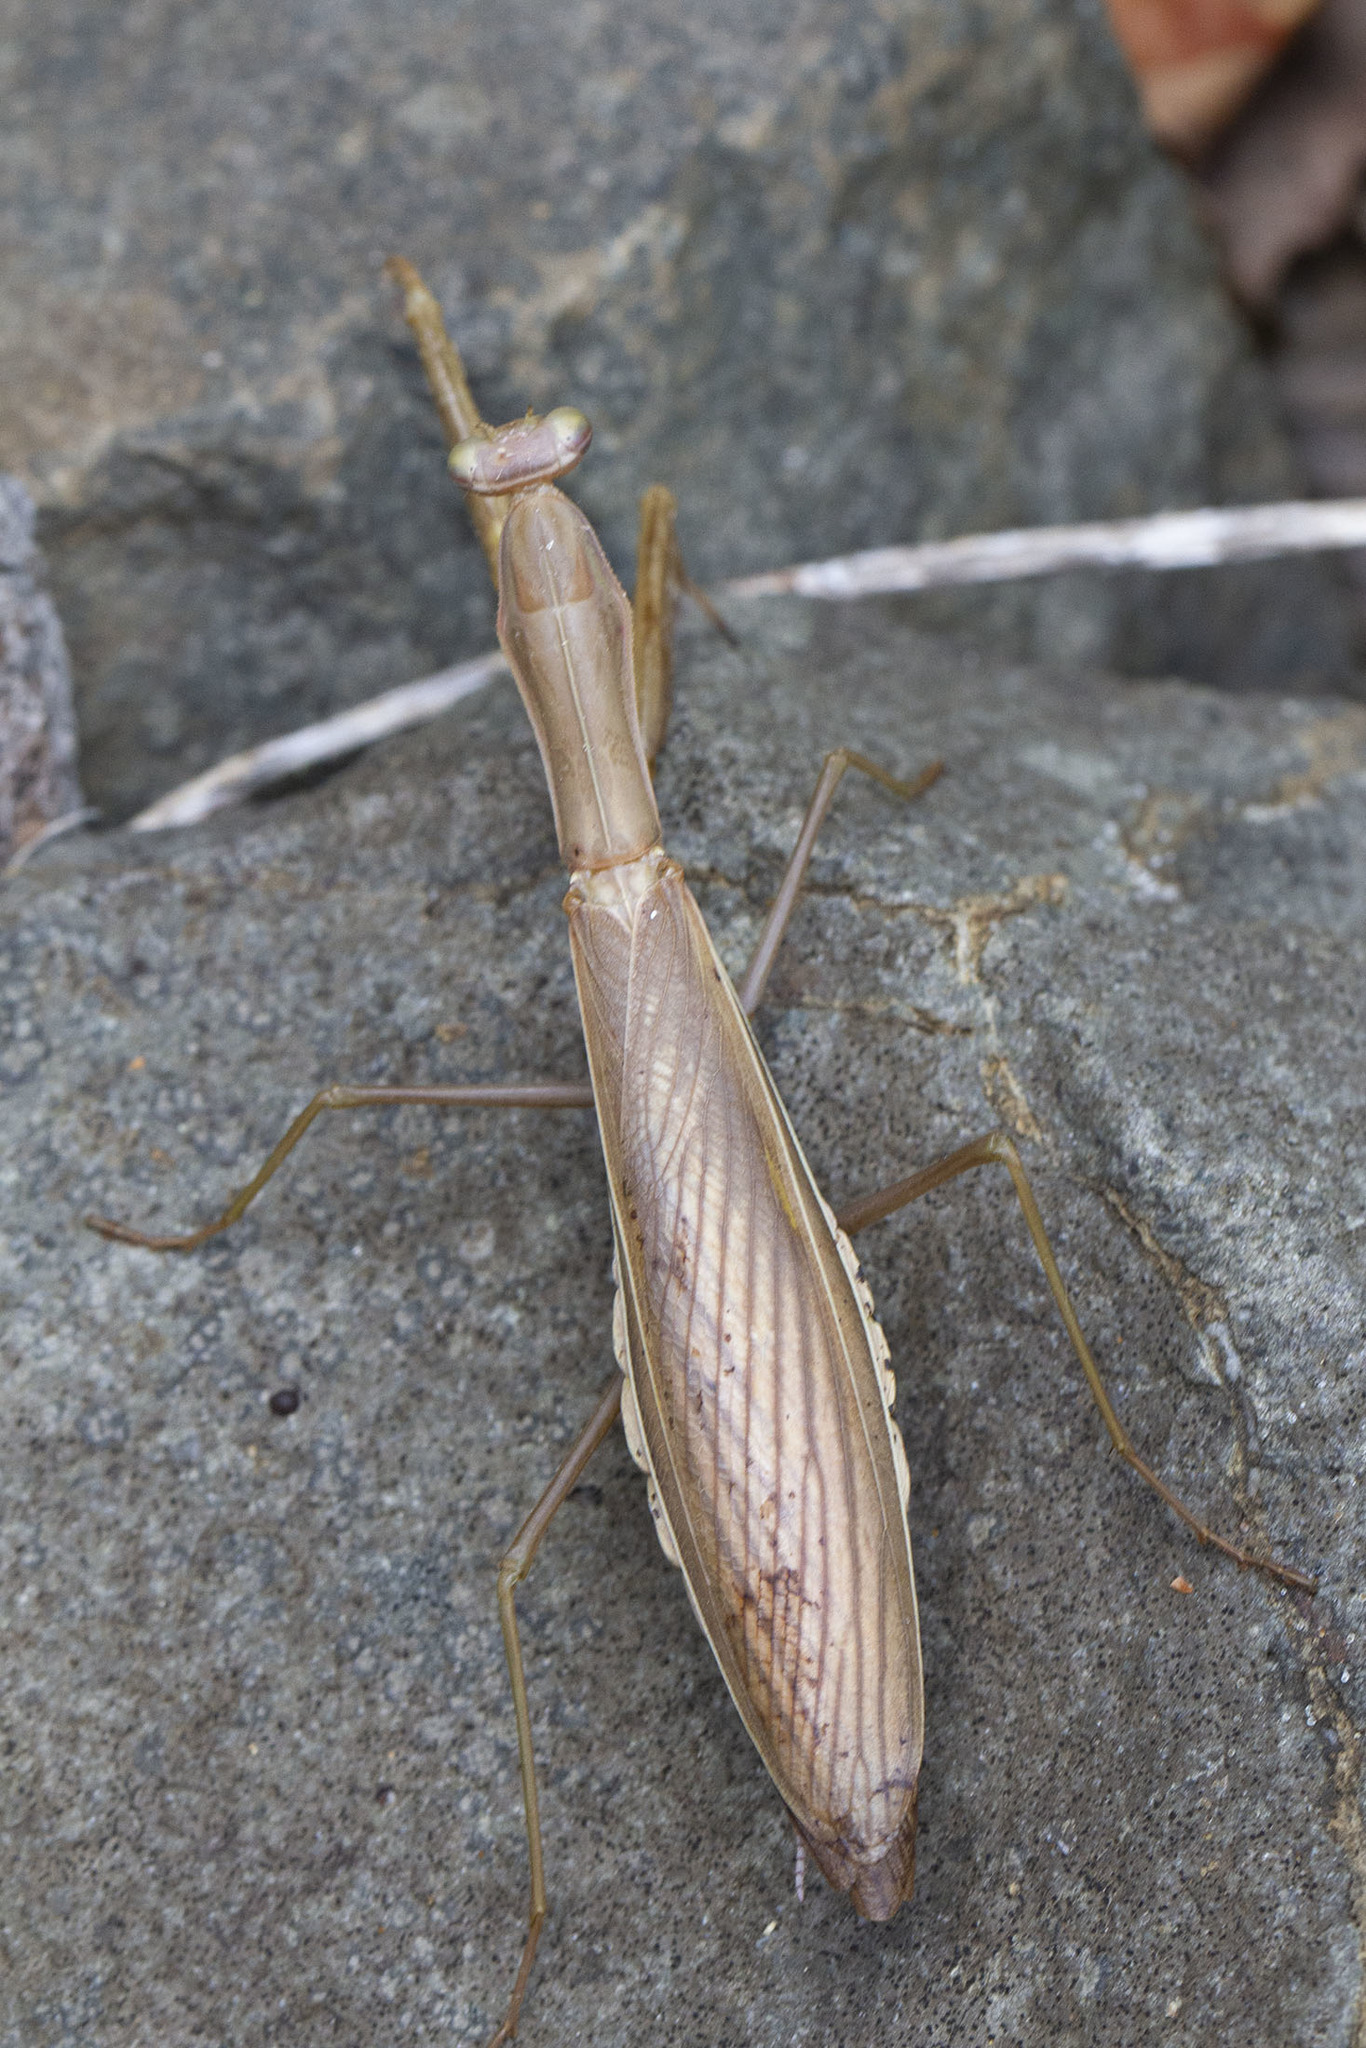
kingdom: Animalia
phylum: Arthropoda
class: Insecta
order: Mantodea
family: Mantidae
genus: Mantis
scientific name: Mantis religiosa
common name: Praying mantis
